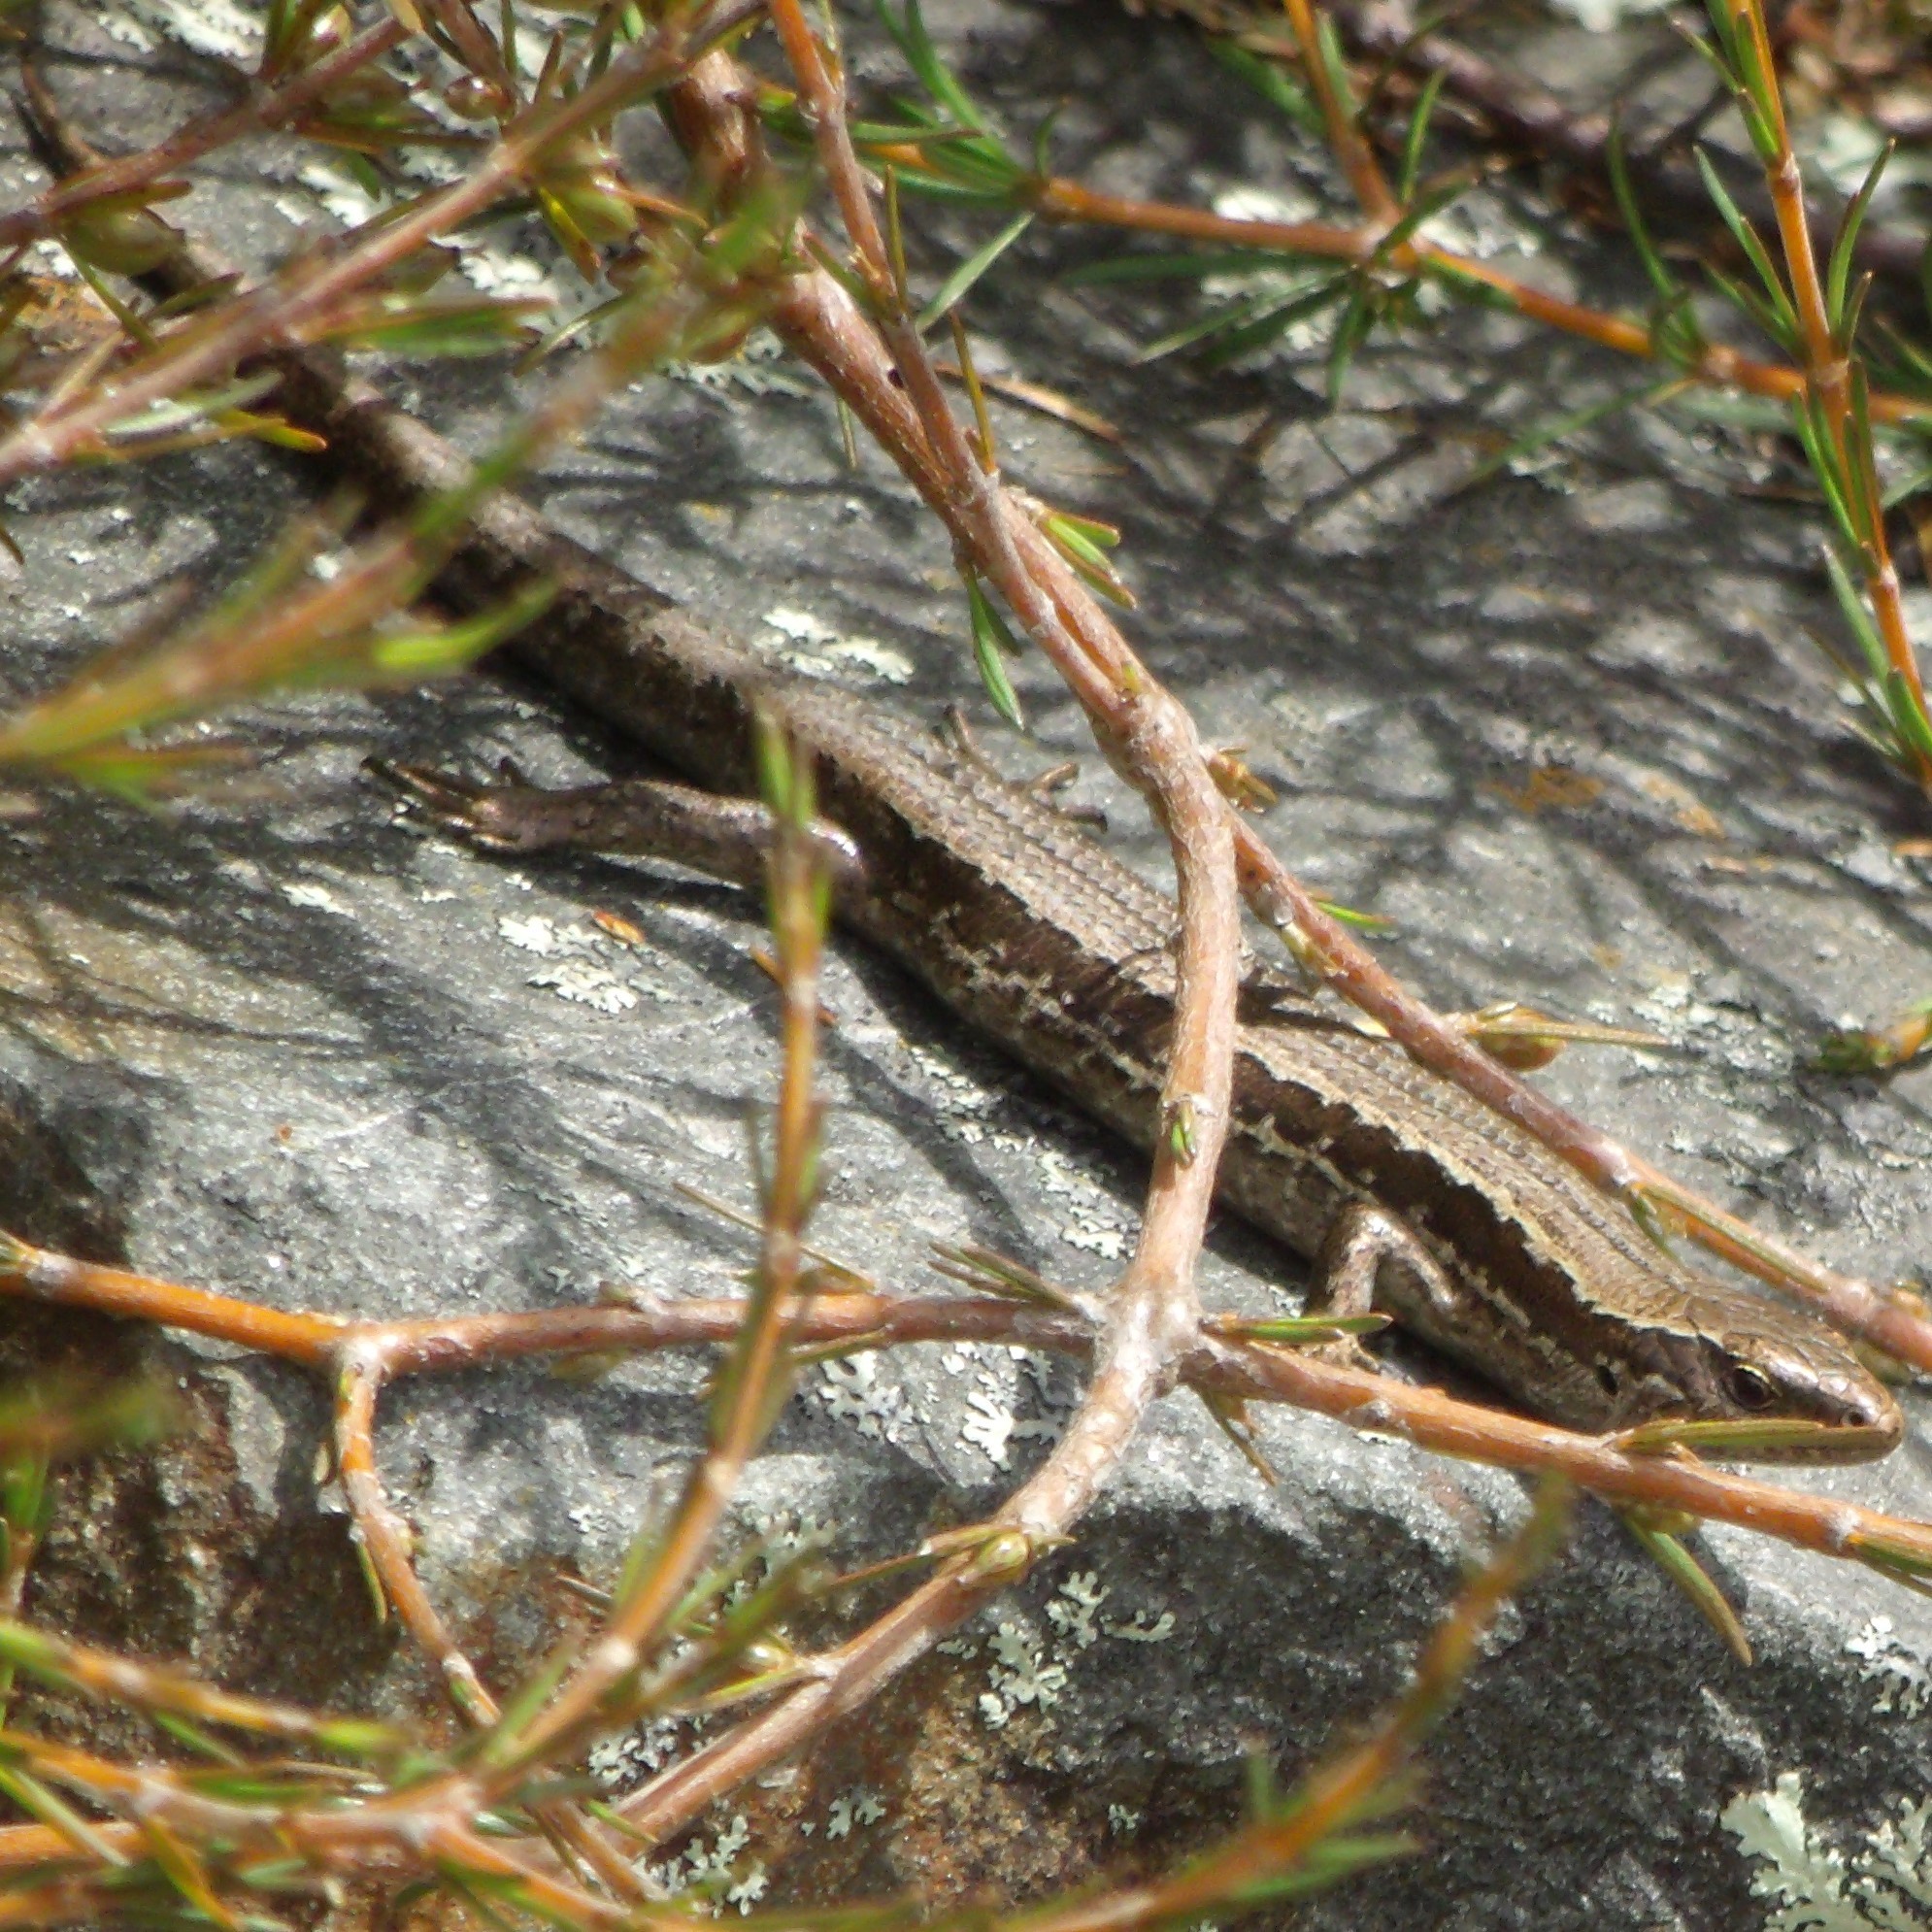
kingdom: Animalia
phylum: Chordata
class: Squamata
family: Scincidae
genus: Oligosoma
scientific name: Oligosoma polychroma
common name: Common new zealand skink
